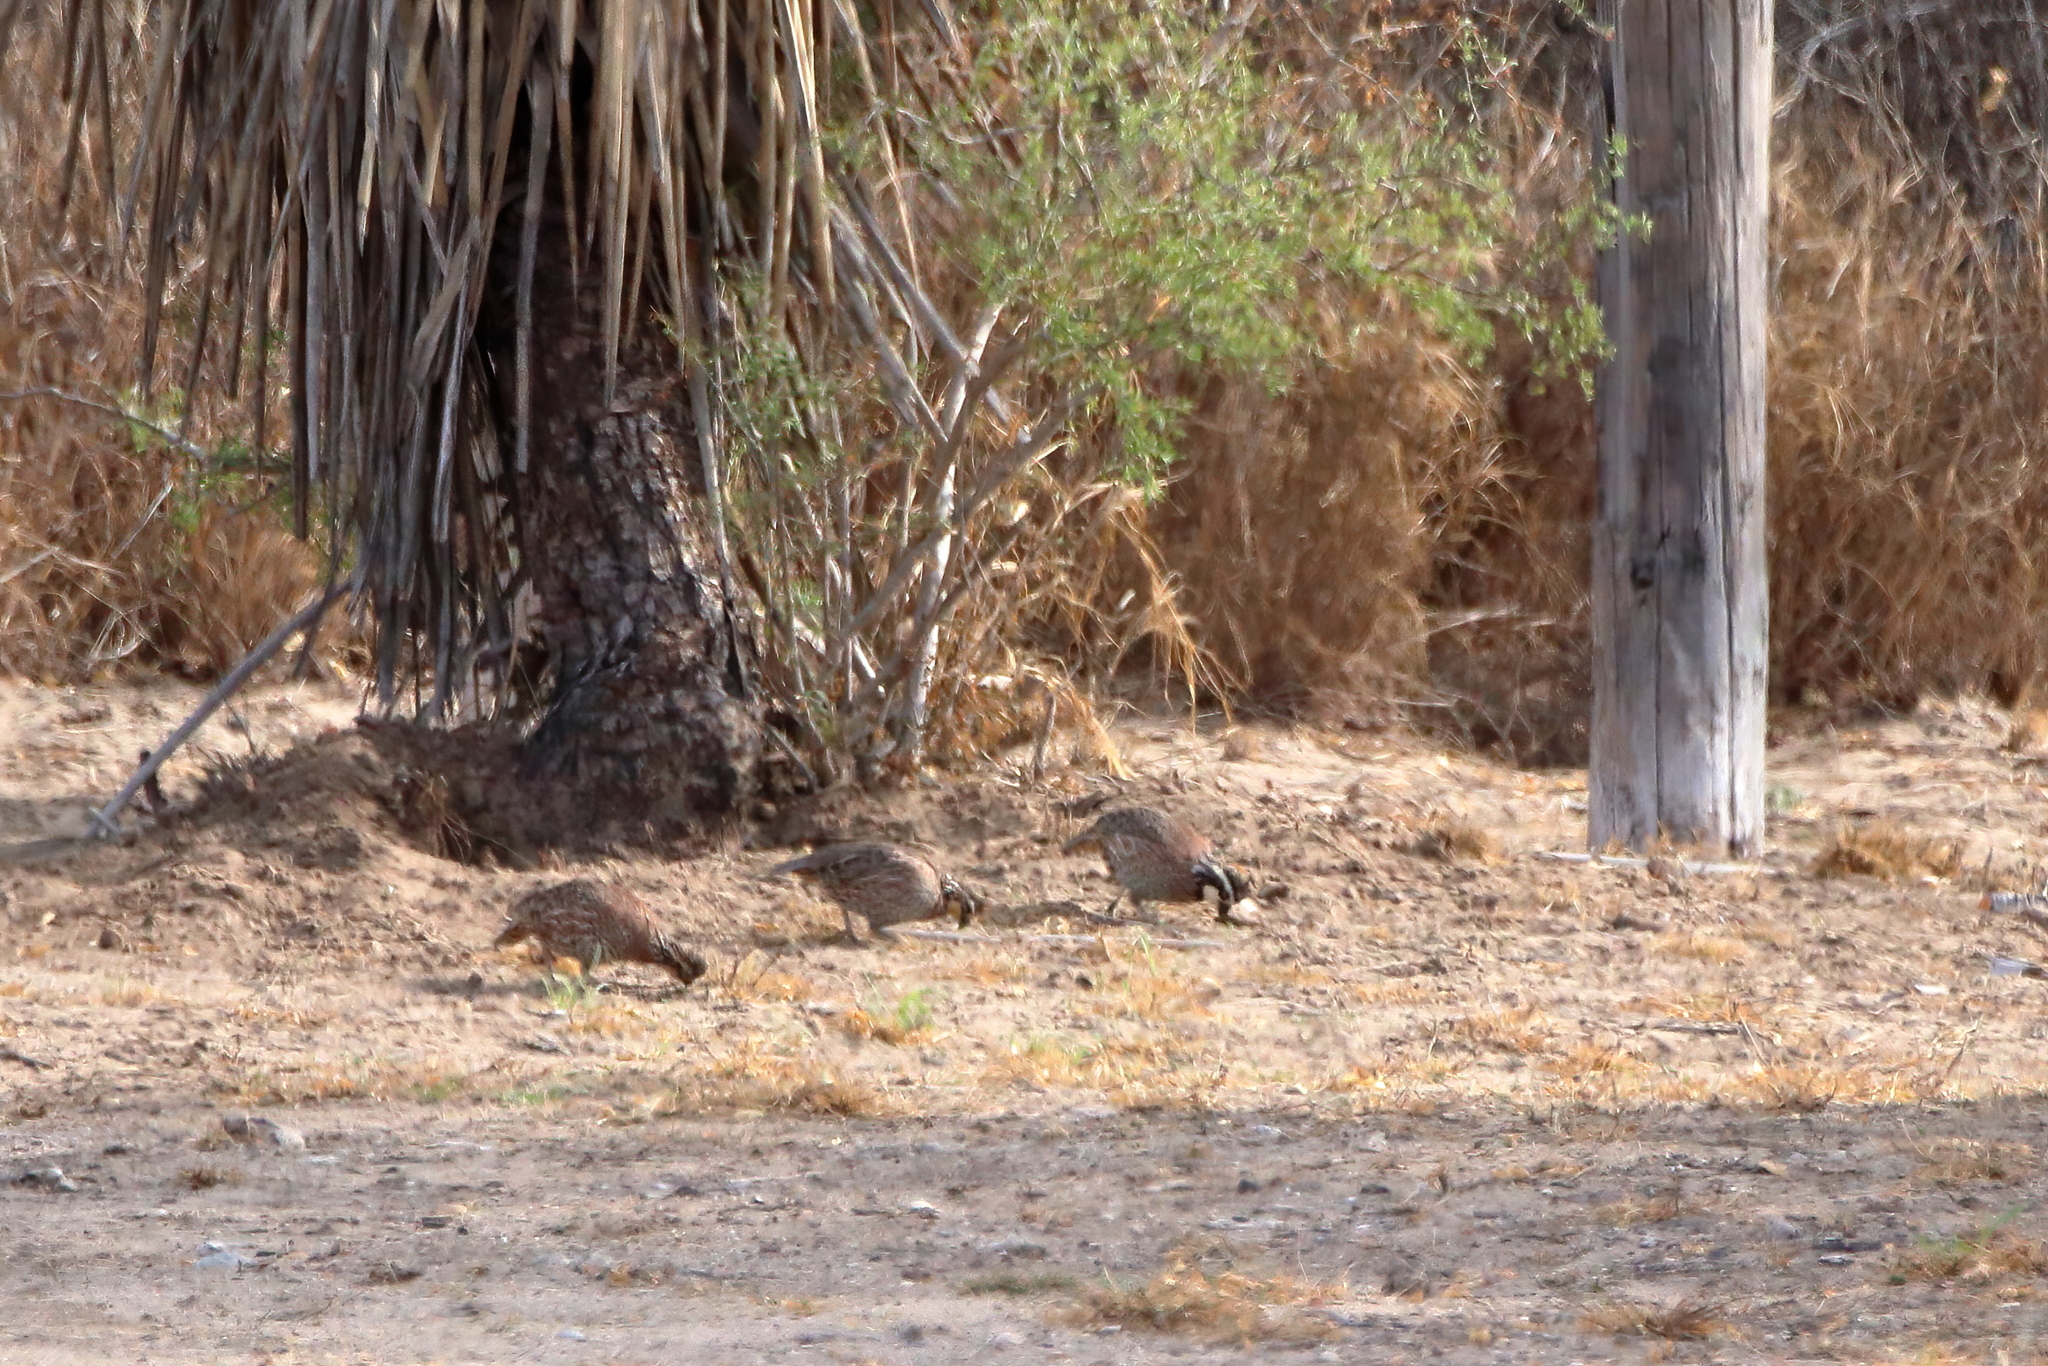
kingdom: Animalia
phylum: Chordata
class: Aves
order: Galliformes
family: Odontophoridae
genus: Colinus
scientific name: Colinus virginianus
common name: Northern bobwhite
